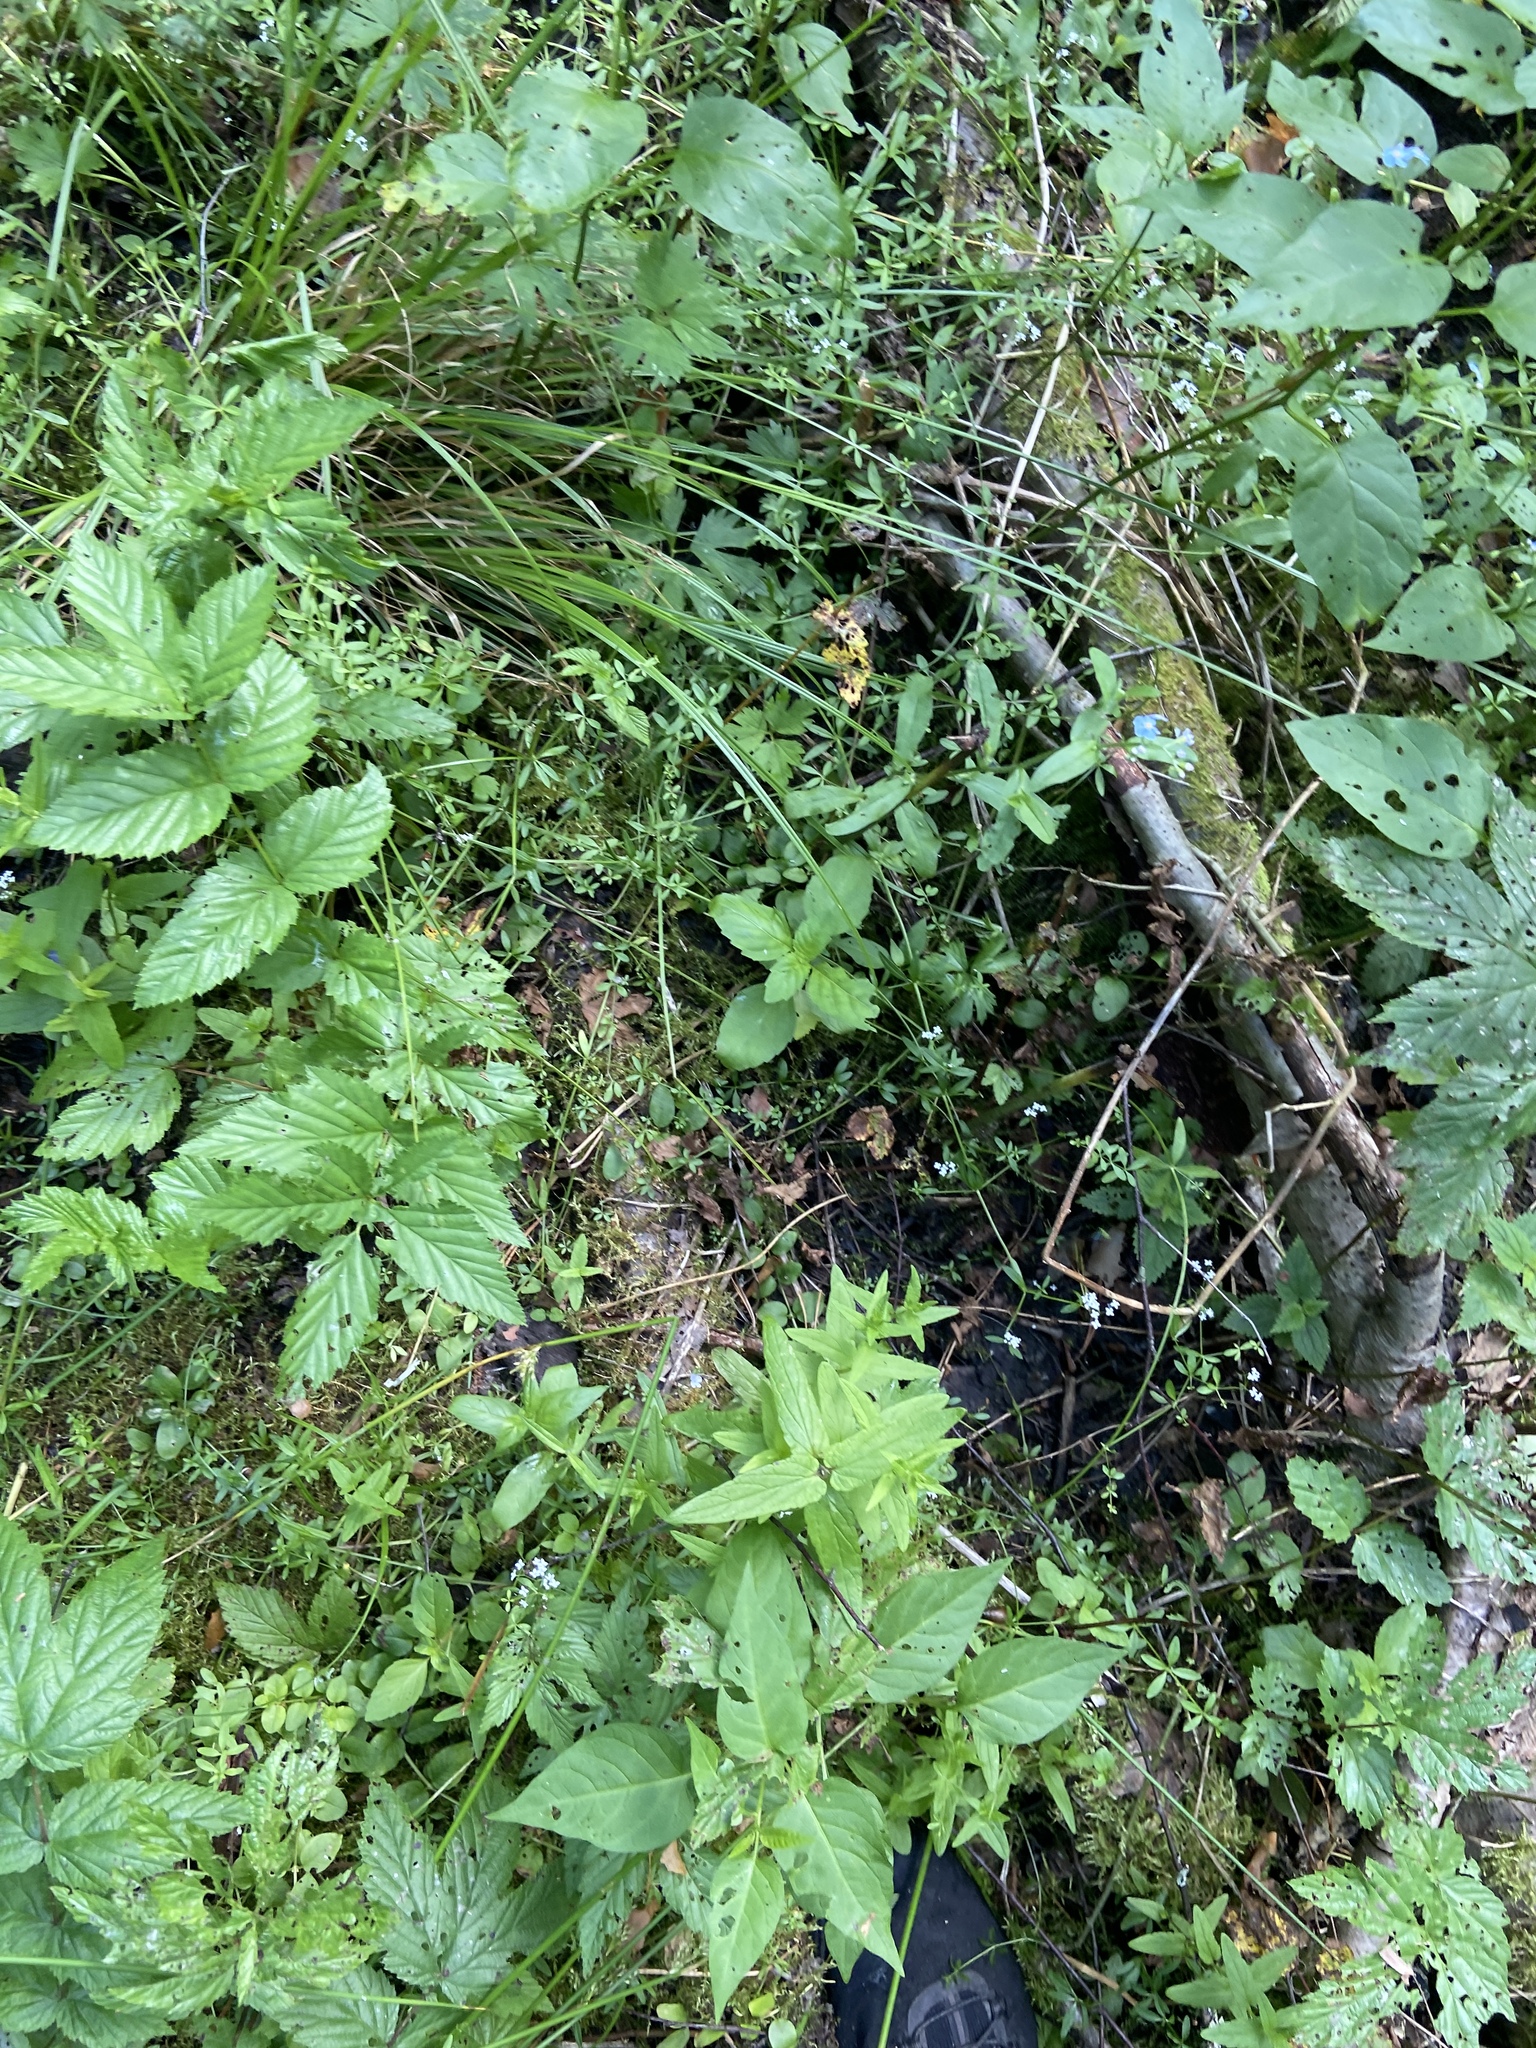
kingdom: Plantae
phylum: Tracheophyta
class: Magnoliopsida
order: Lamiales
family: Lamiaceae
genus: Scutellaria
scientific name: Scutellaria galericulata
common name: Skullcap
